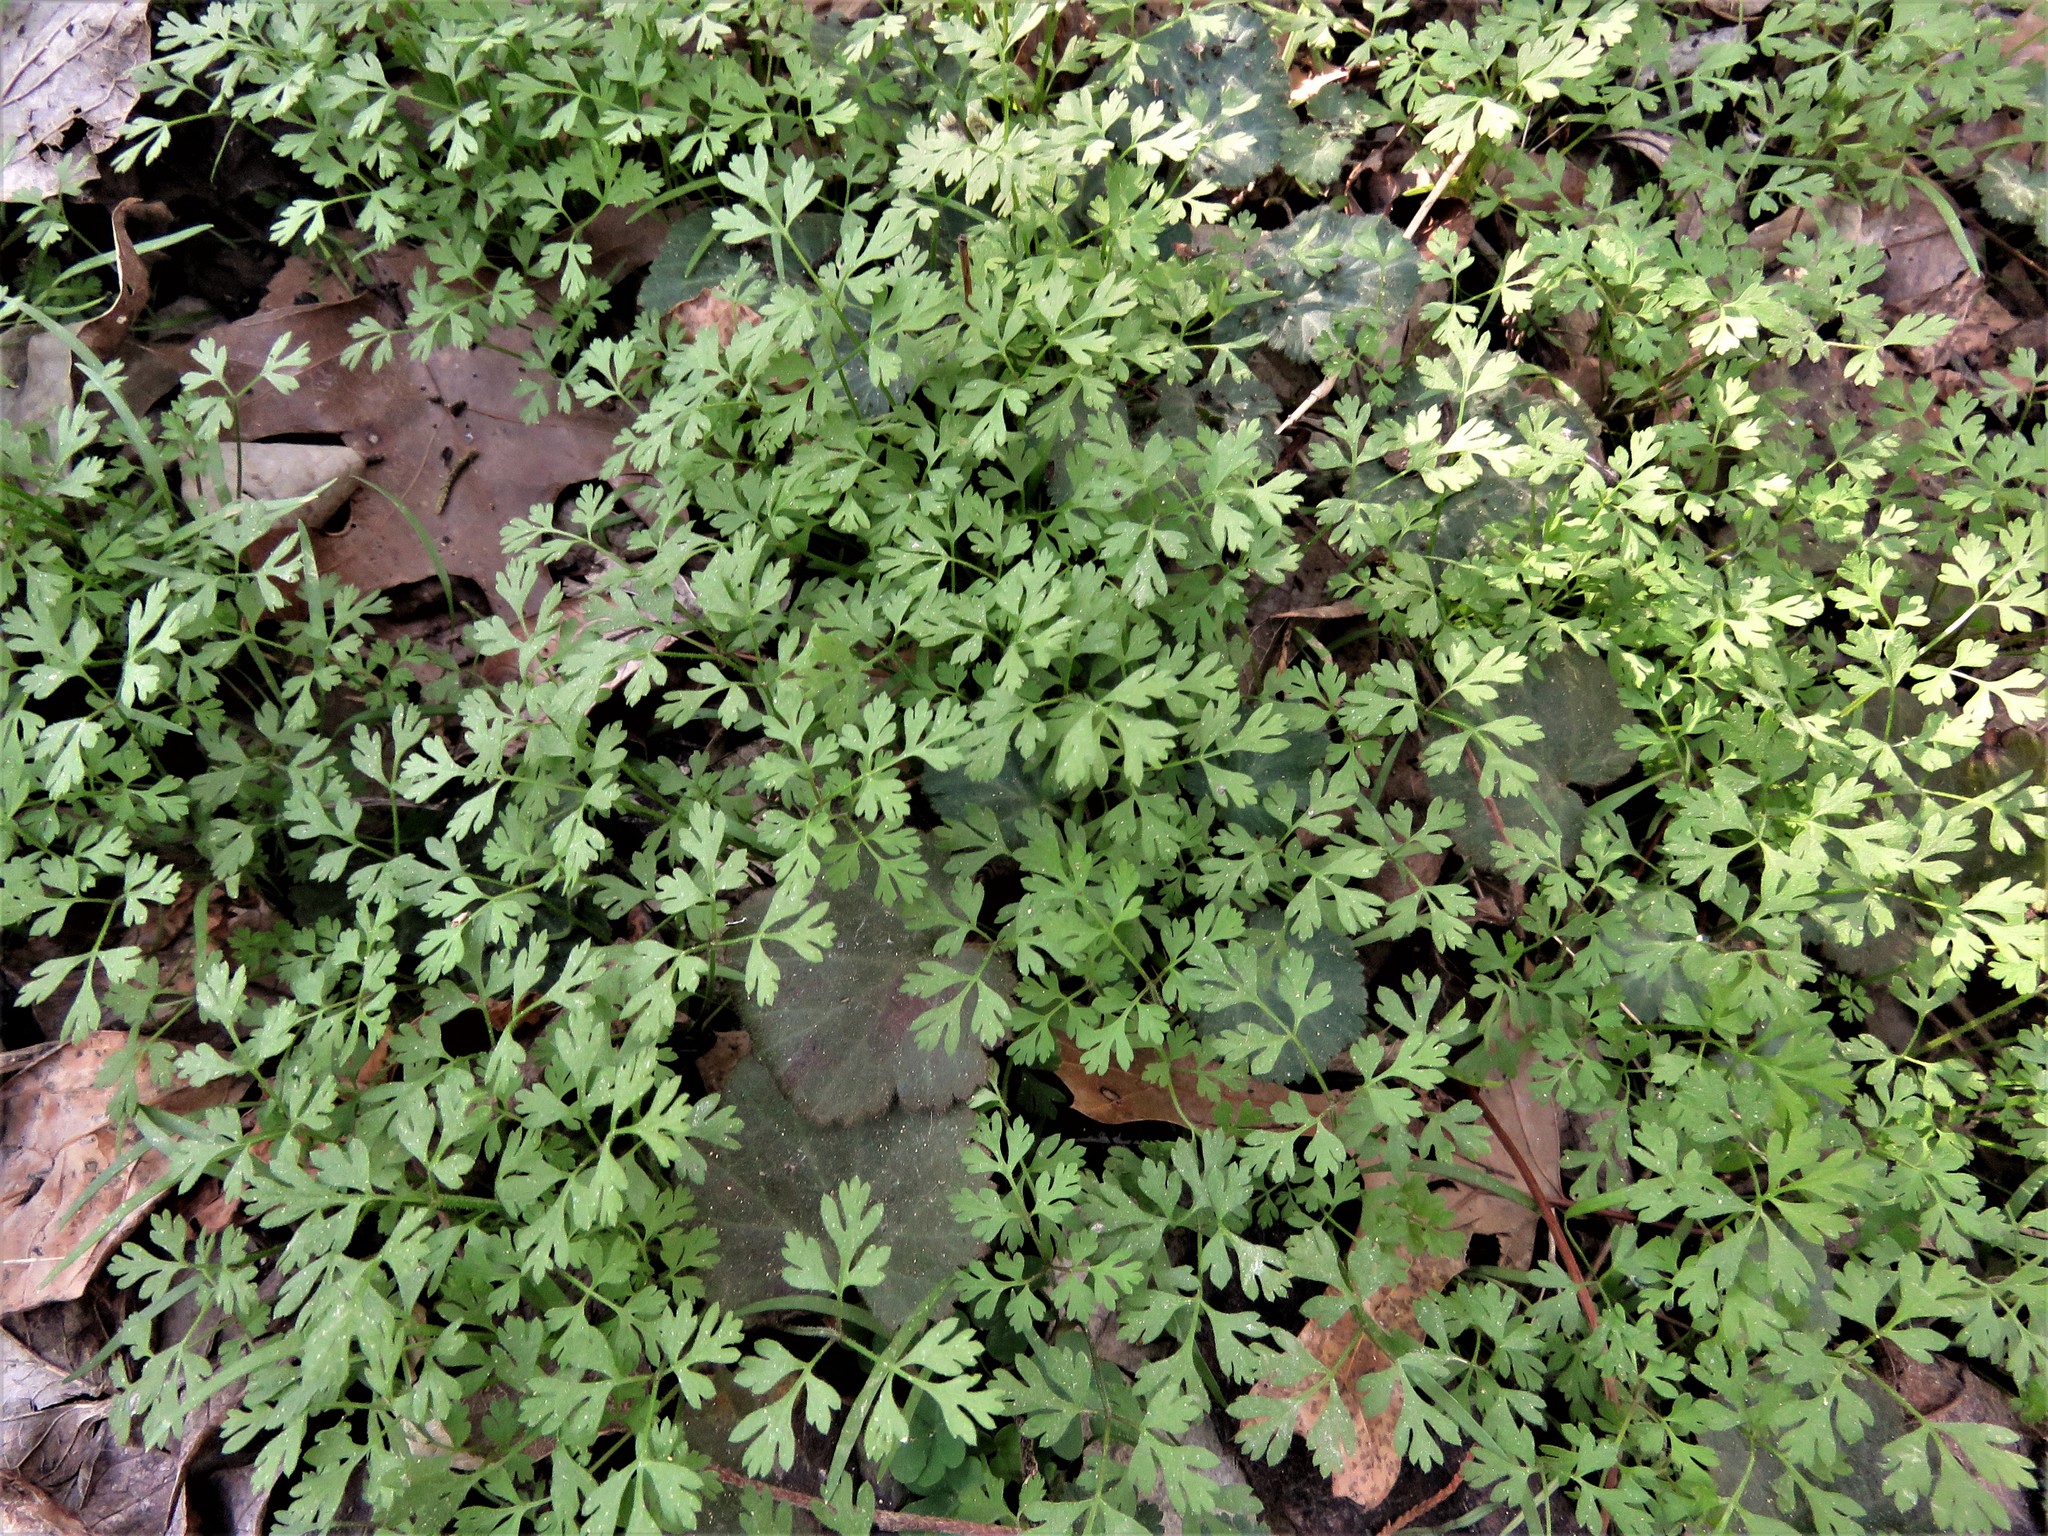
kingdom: Plantae
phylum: Tracheophyta
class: Magnoliopsida
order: Apiales
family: Apiaceae
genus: Chaerophyllum
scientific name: Chaerophyllum tainturieri
